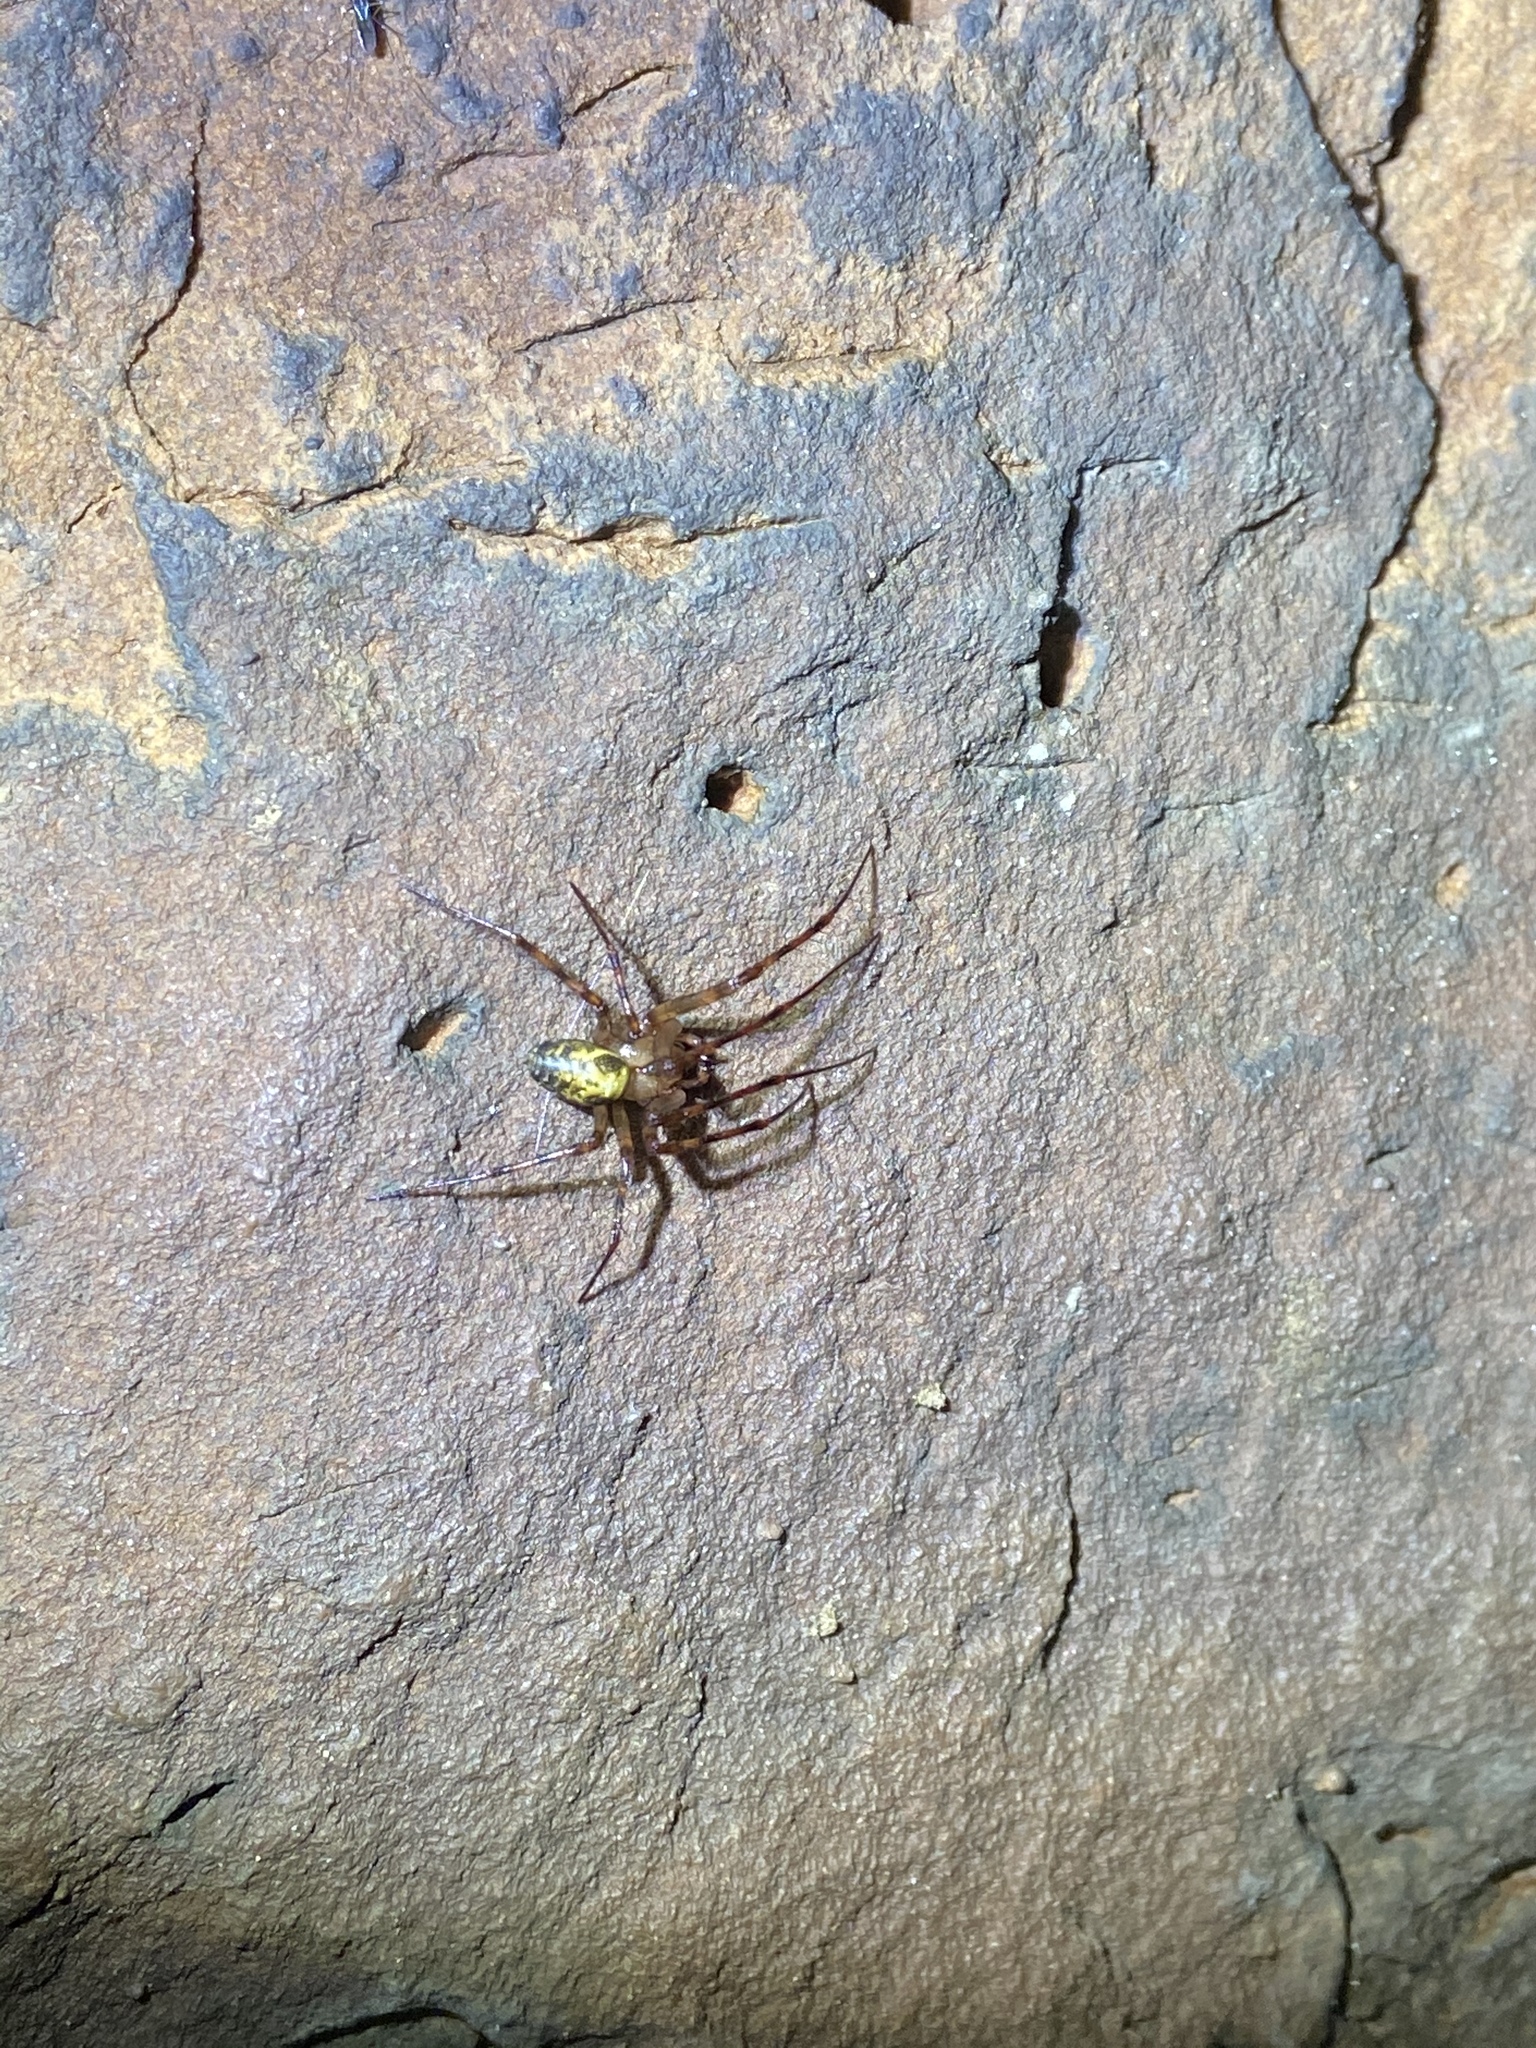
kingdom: Animalia
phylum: Arthropoda
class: Arachnida
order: Araneae
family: Tetragnathidae
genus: Meta
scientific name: Meta ovalis
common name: Eastern cave long-jawed spider
